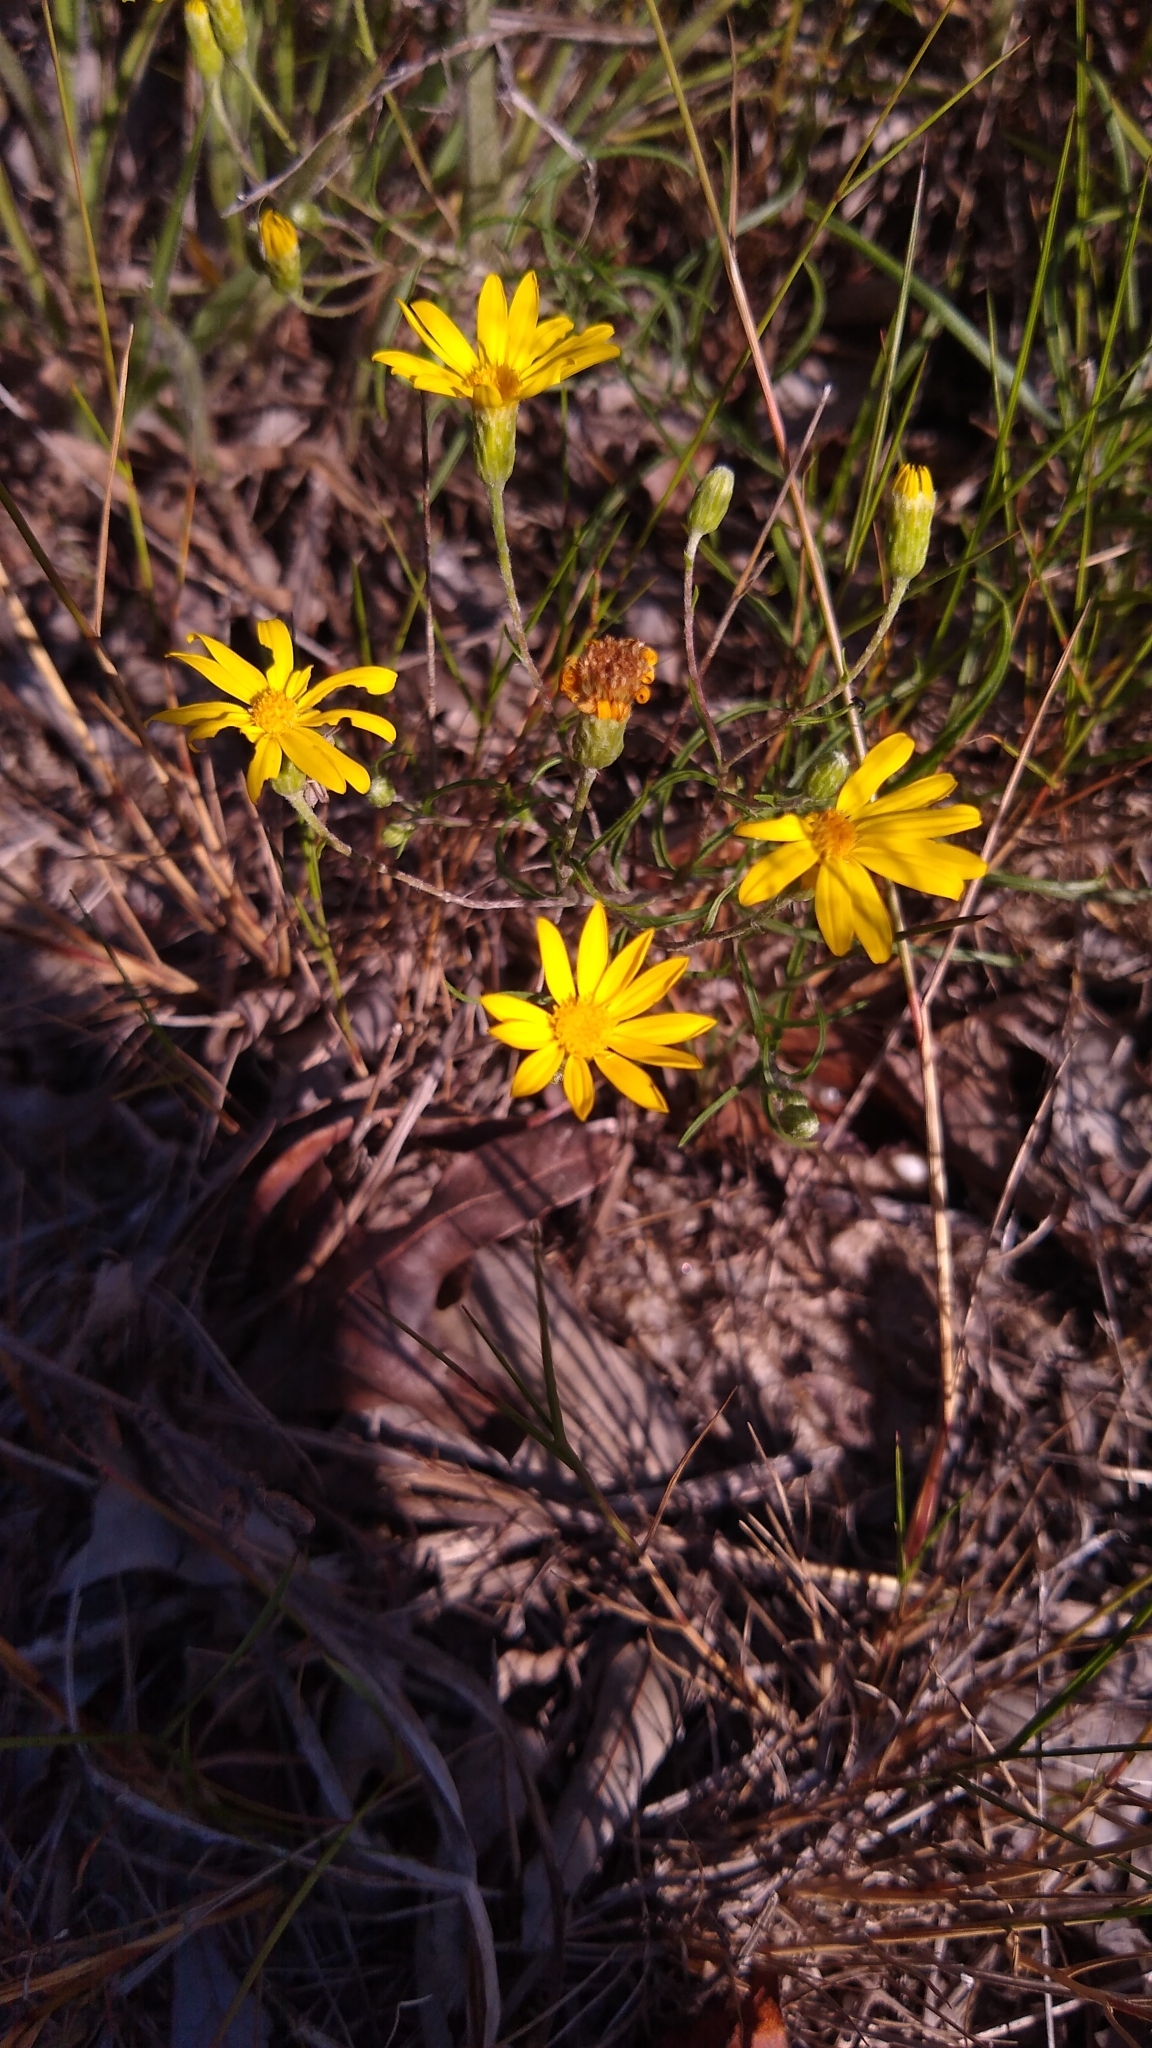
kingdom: Plantae
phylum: Tracheophyta
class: Magnoliopsida
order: Asterales
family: Asteraceae
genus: Pityopsis
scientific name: Pityopsis falcata
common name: Sickle-leaved goldenaster
